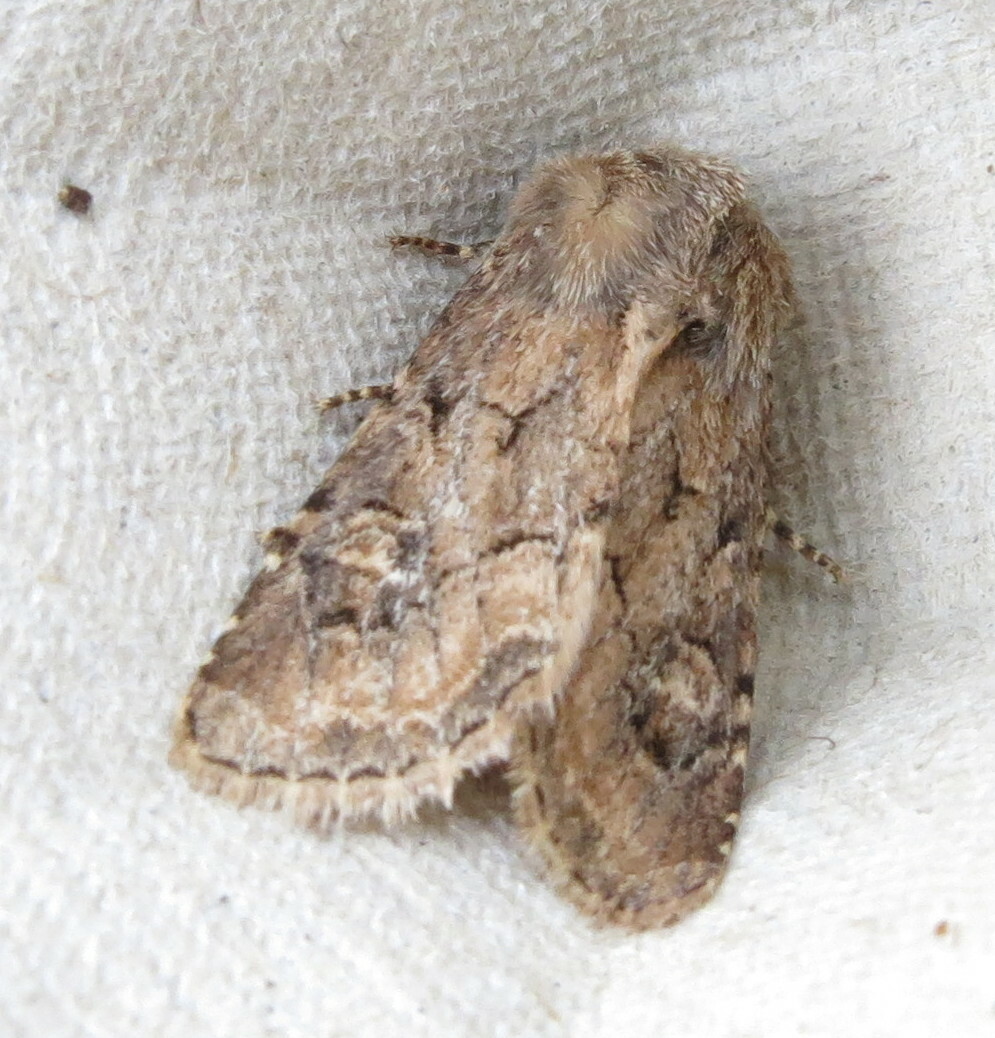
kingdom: Animalia
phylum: Arthropoda
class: Insecta
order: Lepidoptera
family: Noctuidae
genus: Luperina
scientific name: Luperina testacea
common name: Flounced rustic
